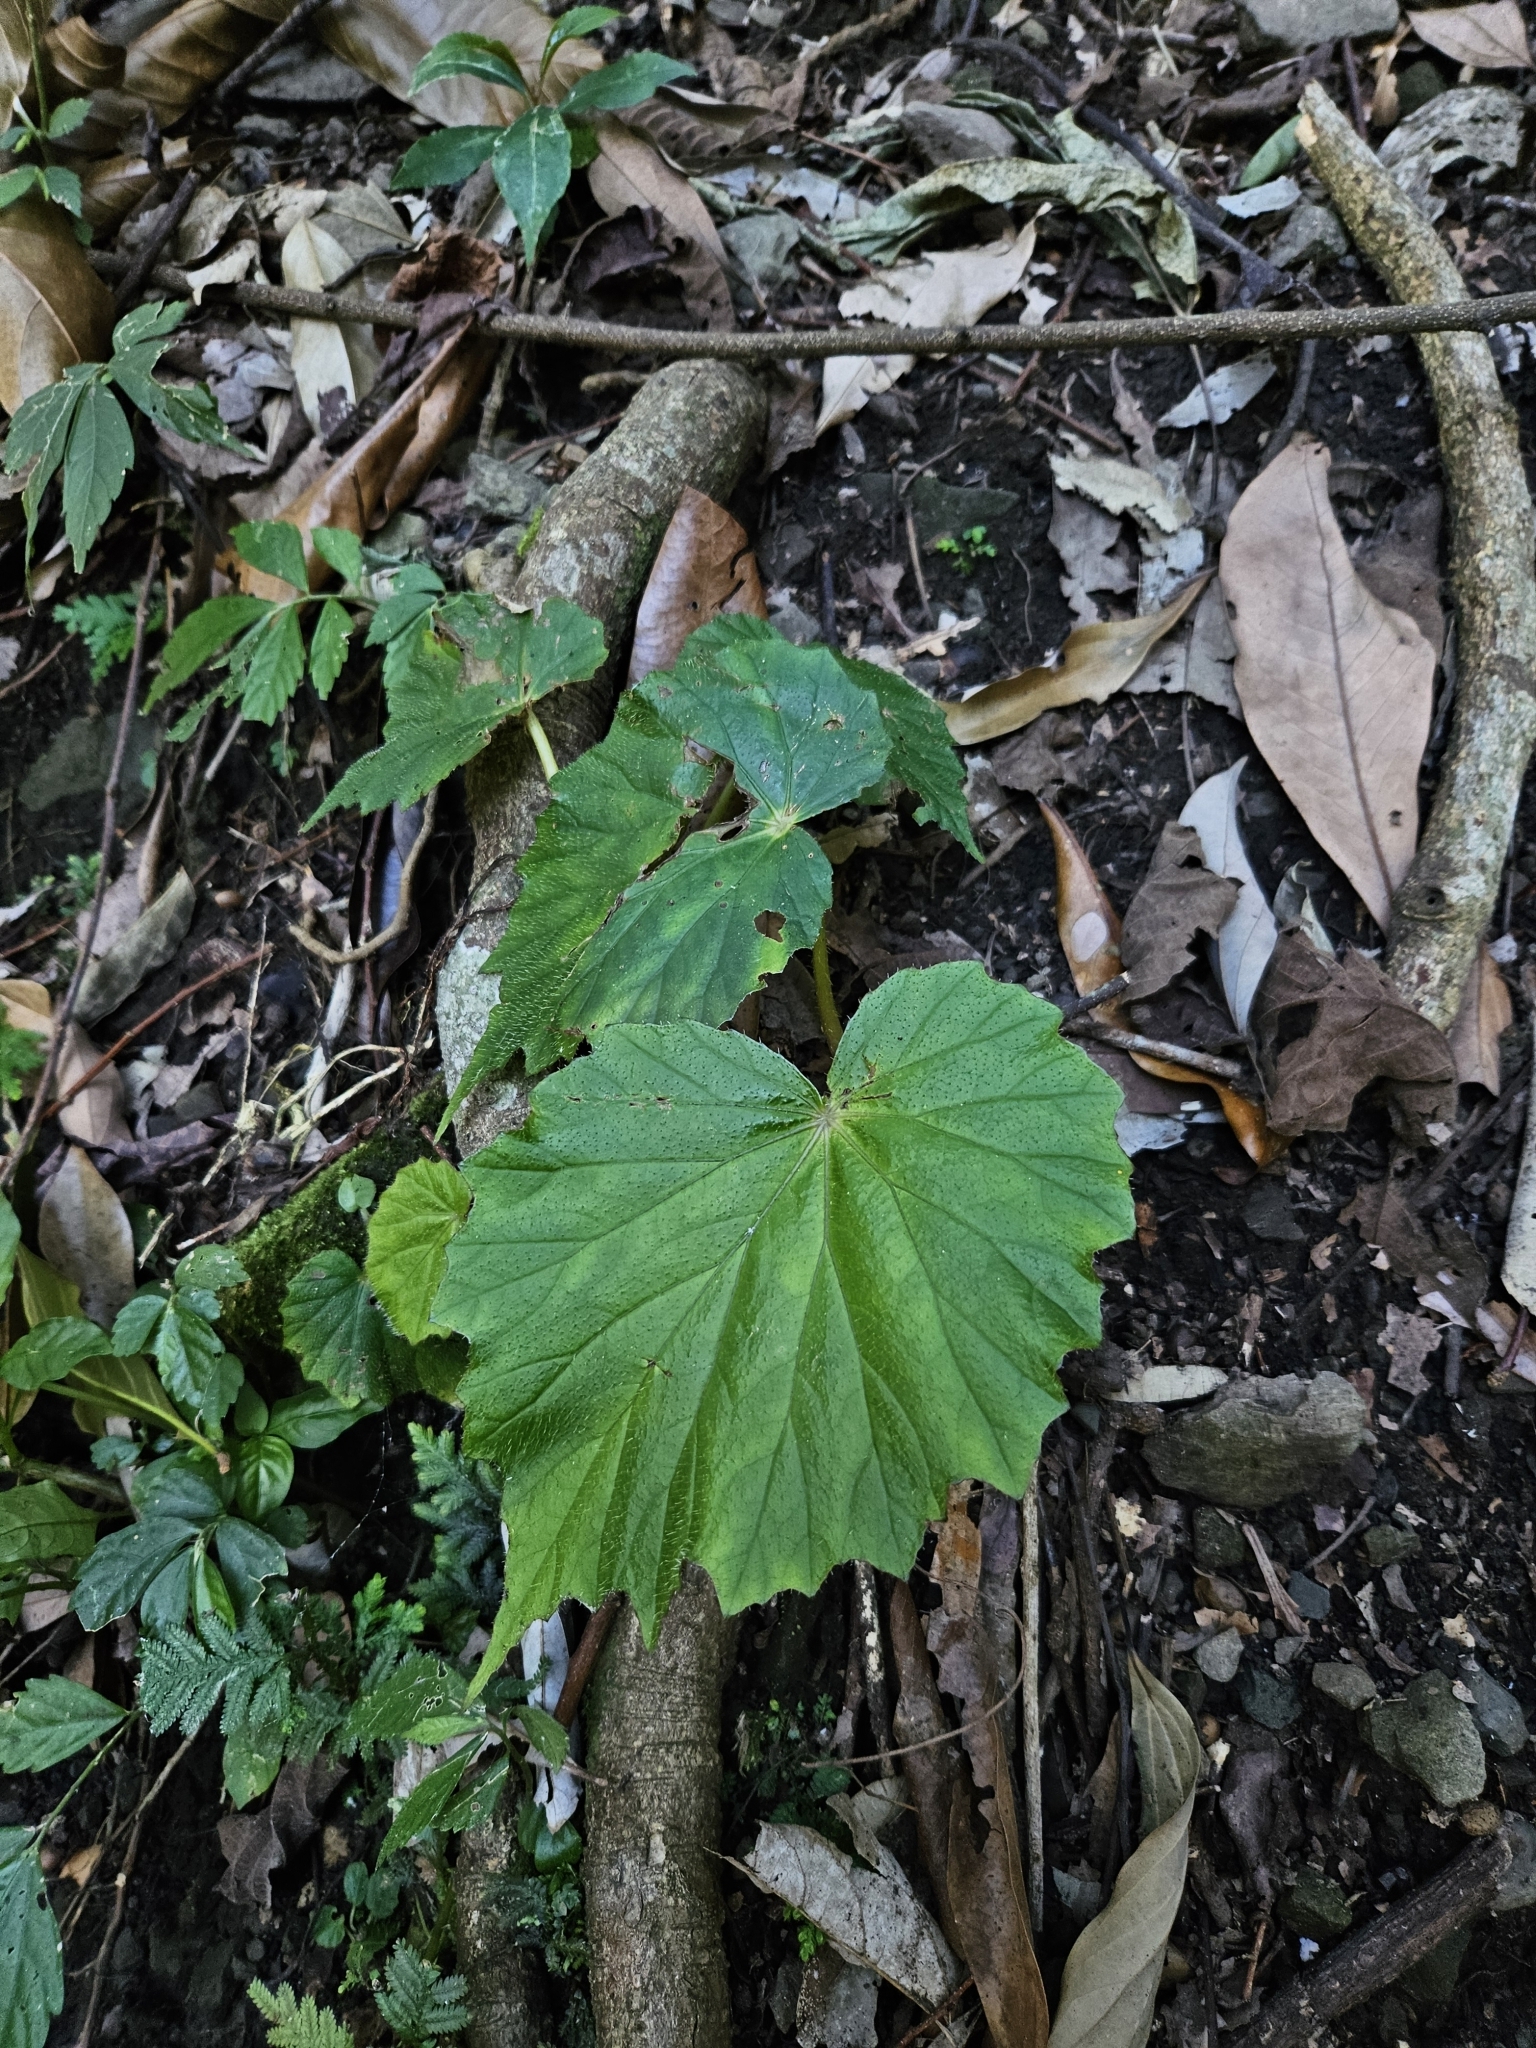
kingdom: Plantae
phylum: Tracheophyta
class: Magnoliopsida
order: Cucurbitales
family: Begoniaceae
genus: Begonia
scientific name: Begonia palmata
